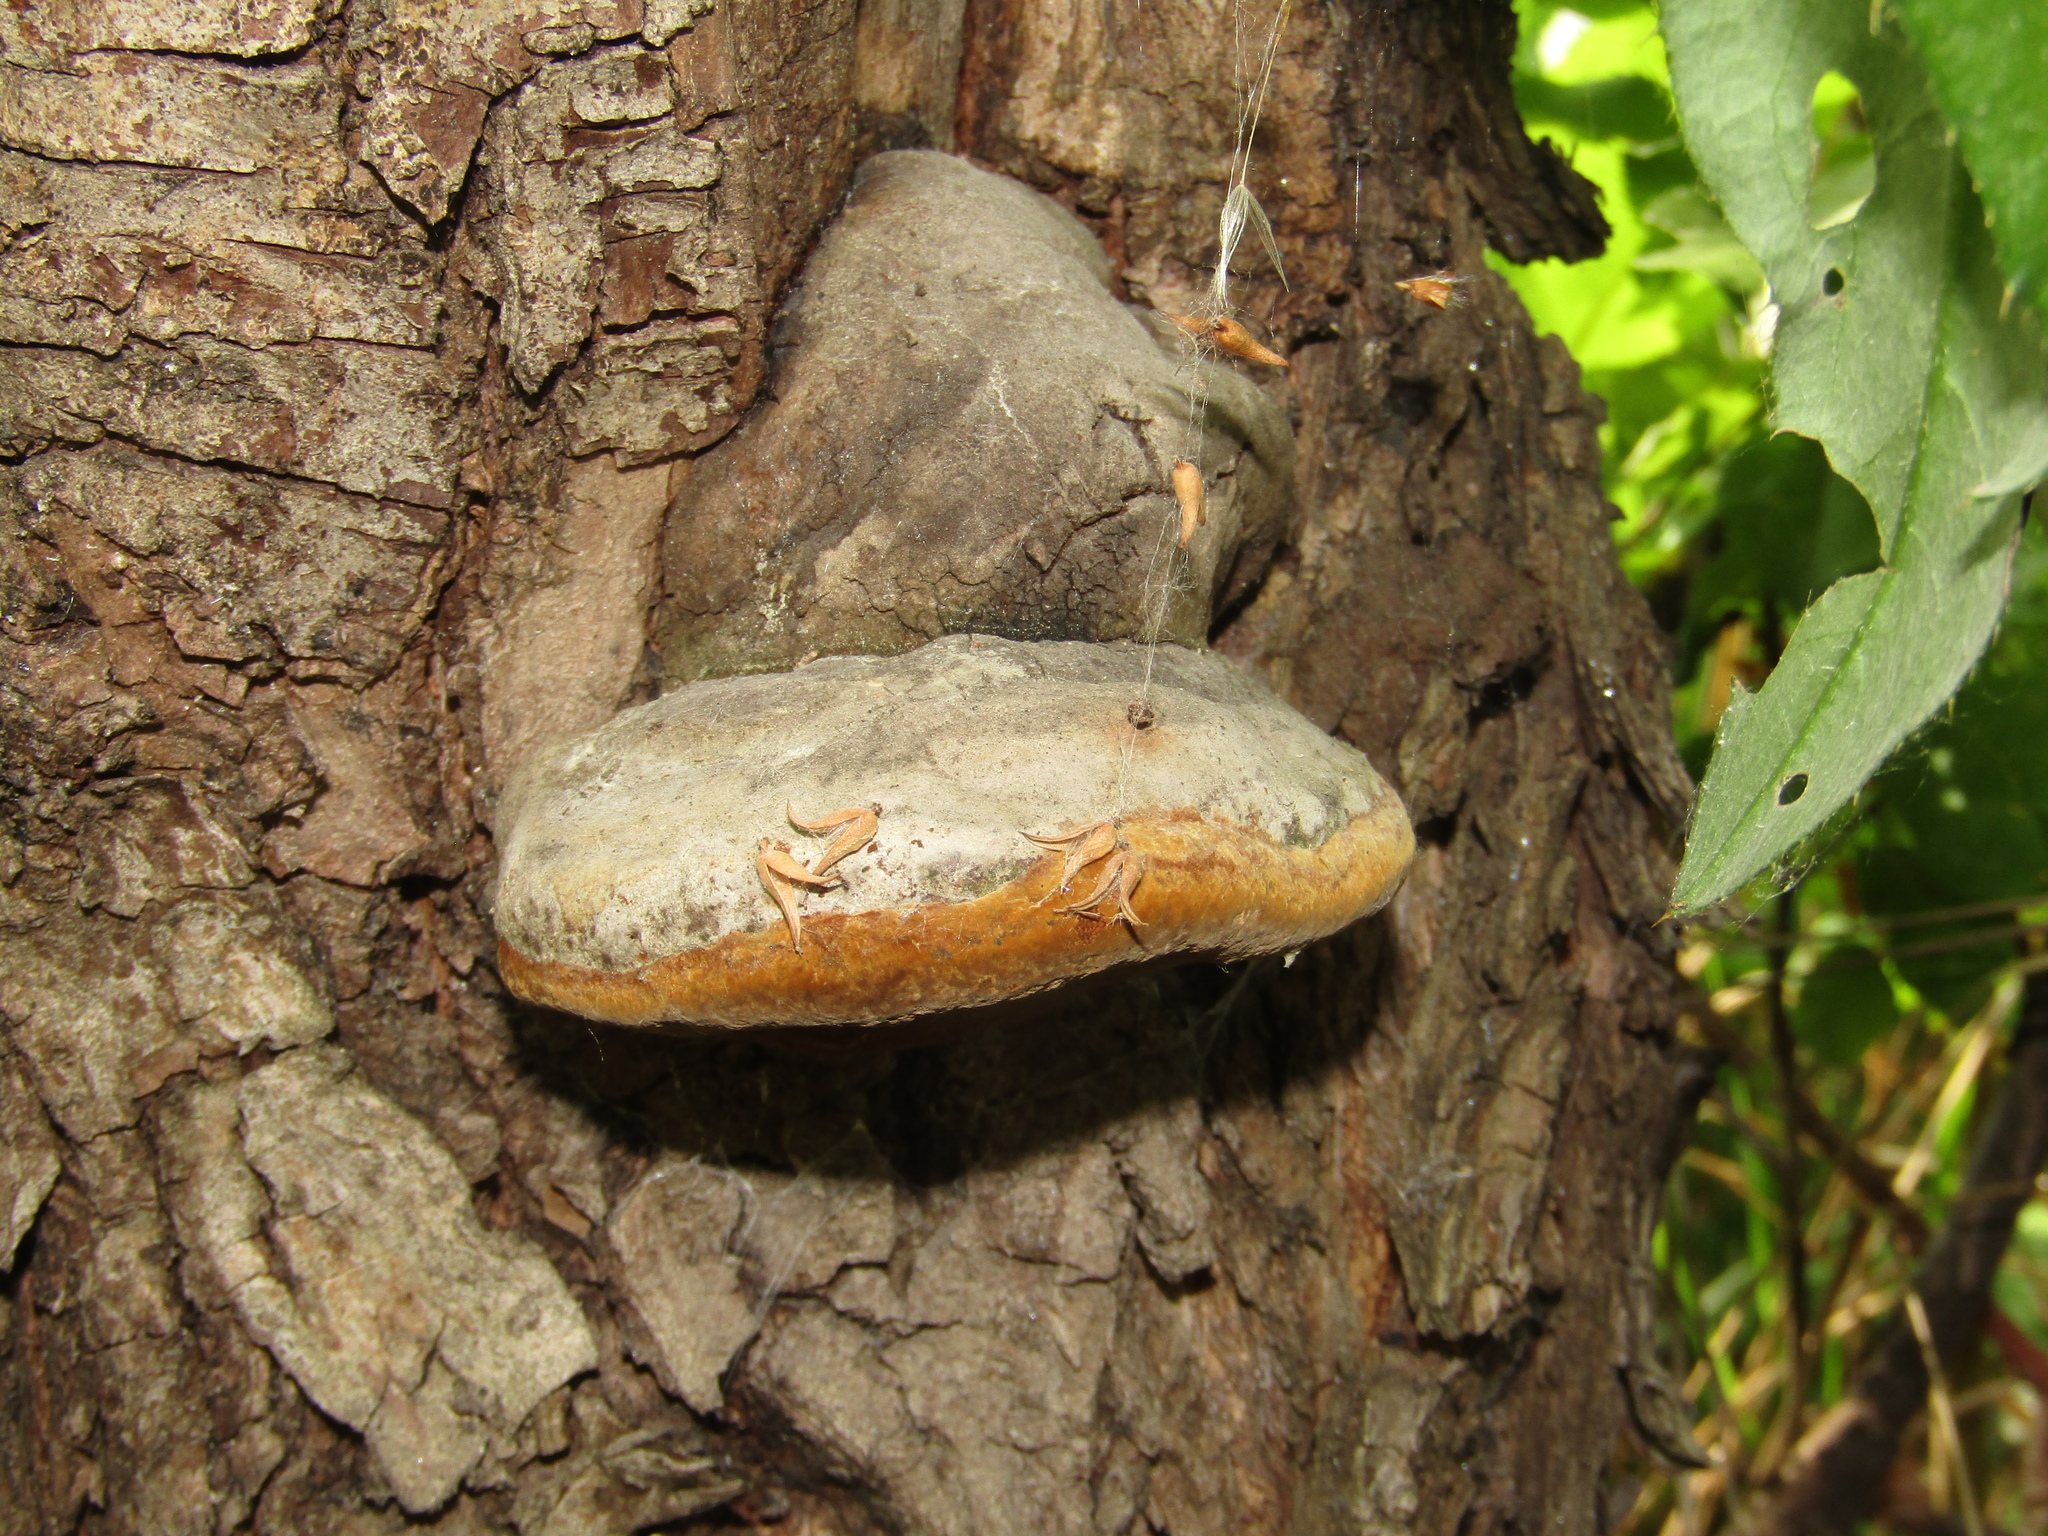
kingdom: Fungi
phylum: Basidiomycota
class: Agaricomycetes
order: Hymenochaetales
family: Hymenochaetaceae
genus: Phellinus
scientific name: Phellinus igniarius
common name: Willow bracket
